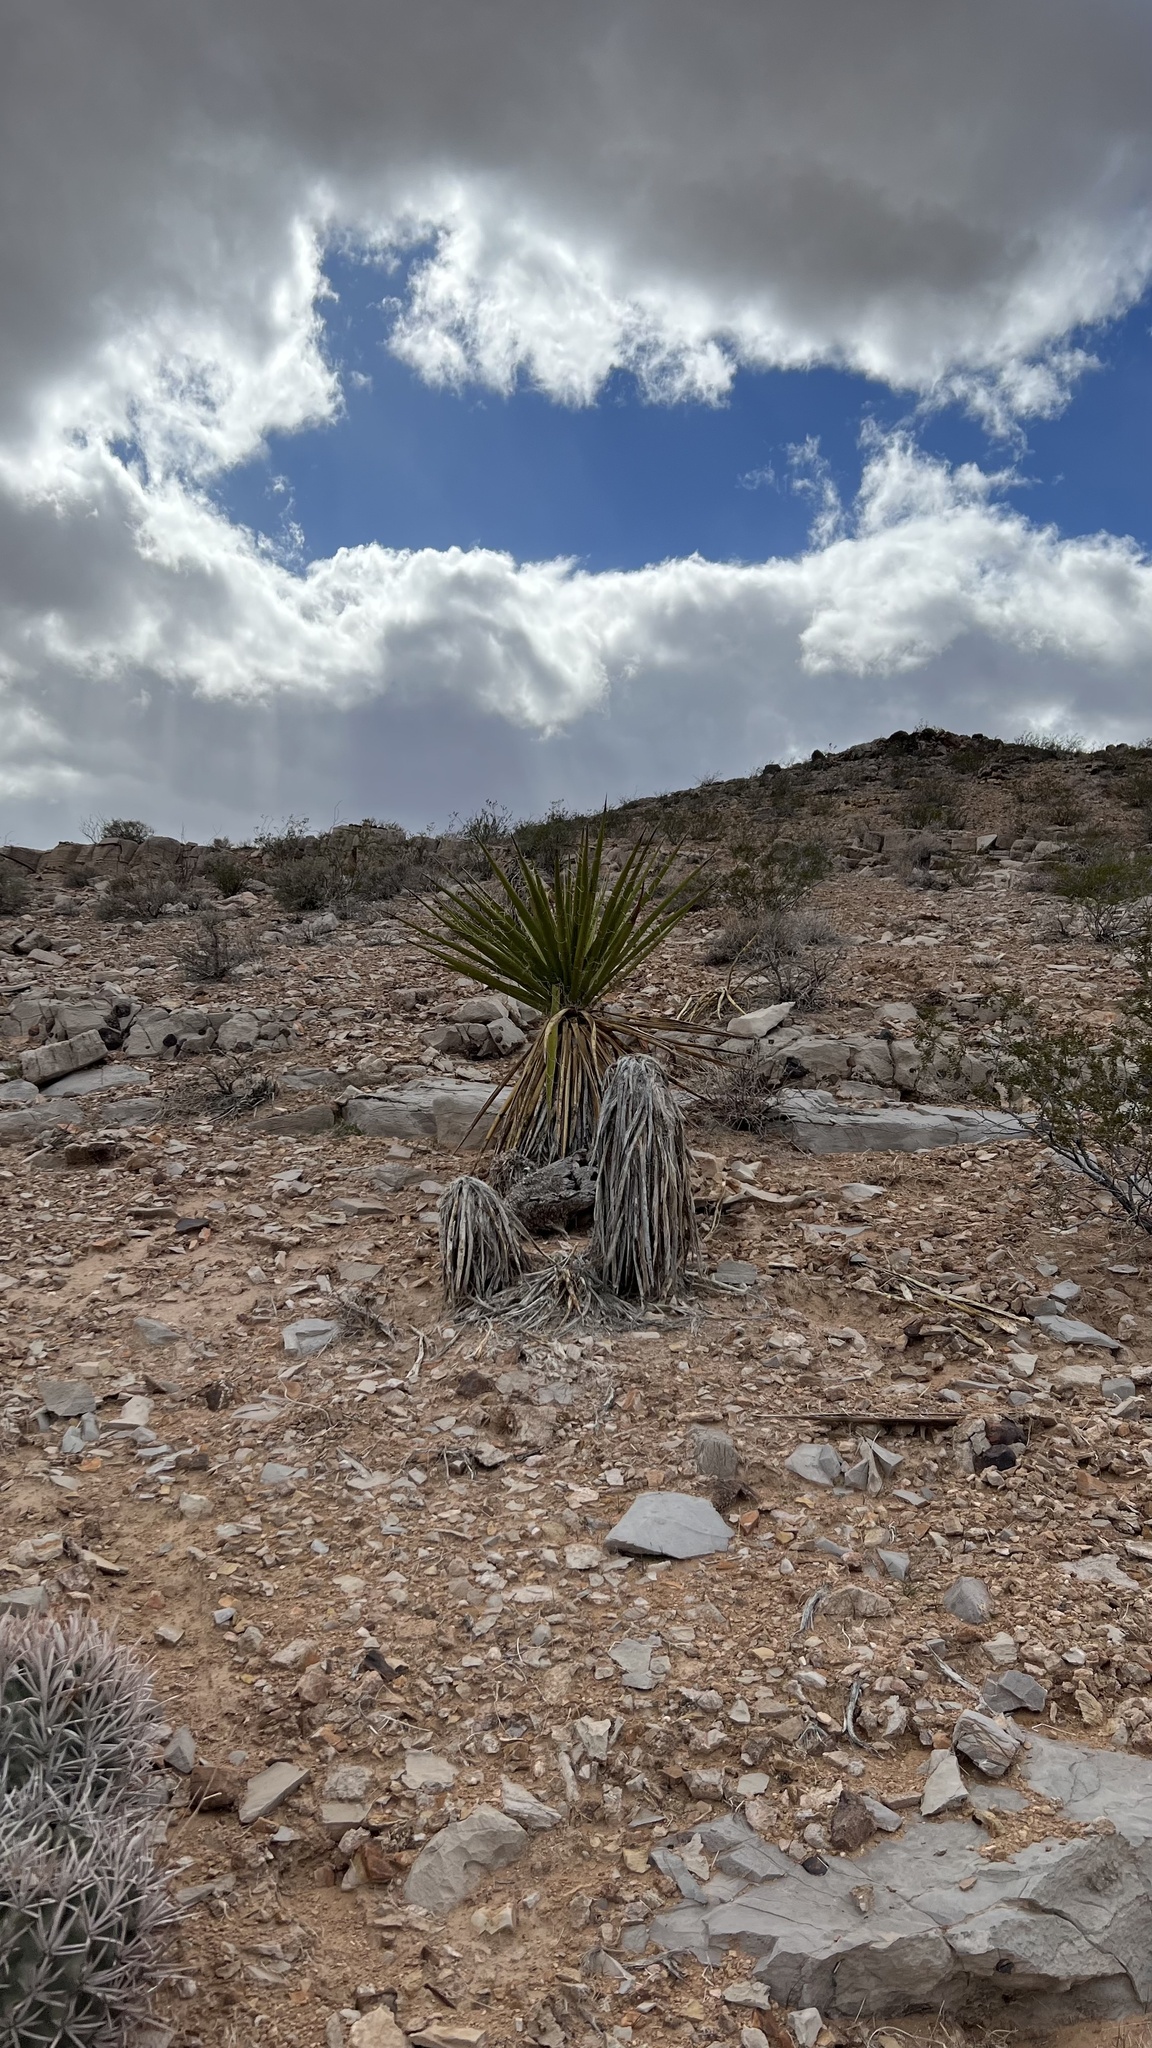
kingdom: Plantae
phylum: Tracheophyta
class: Liliopsida
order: Asparagales
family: Asparagaceae
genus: Yucca
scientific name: Yucca schidigera
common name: Mojave yucca
